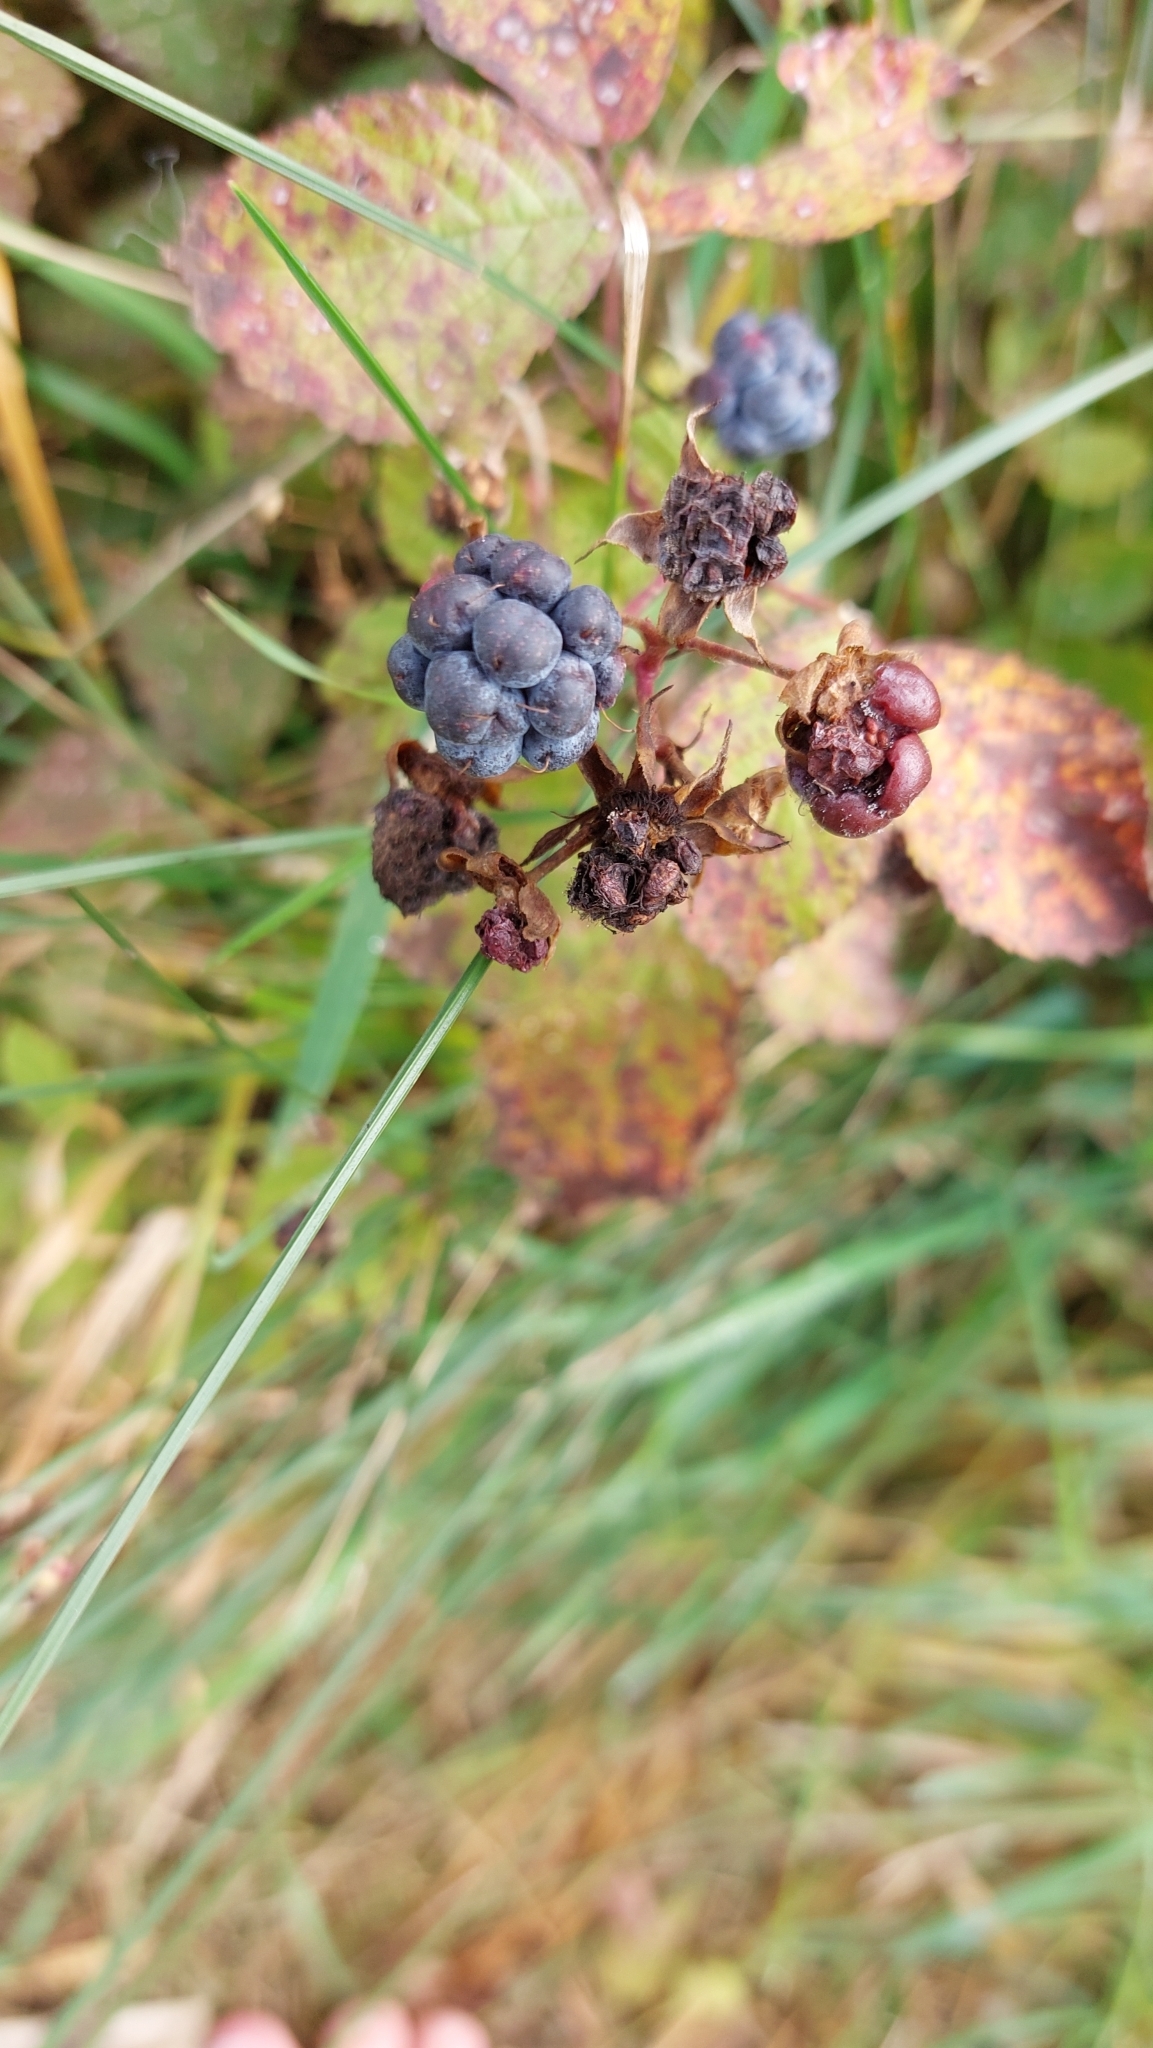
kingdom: Plantae
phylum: Tracheophyta
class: Magnoliopsida
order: Rosales
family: Rosaceae
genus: Rubus
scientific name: Rubus caesius
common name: Dewberry
